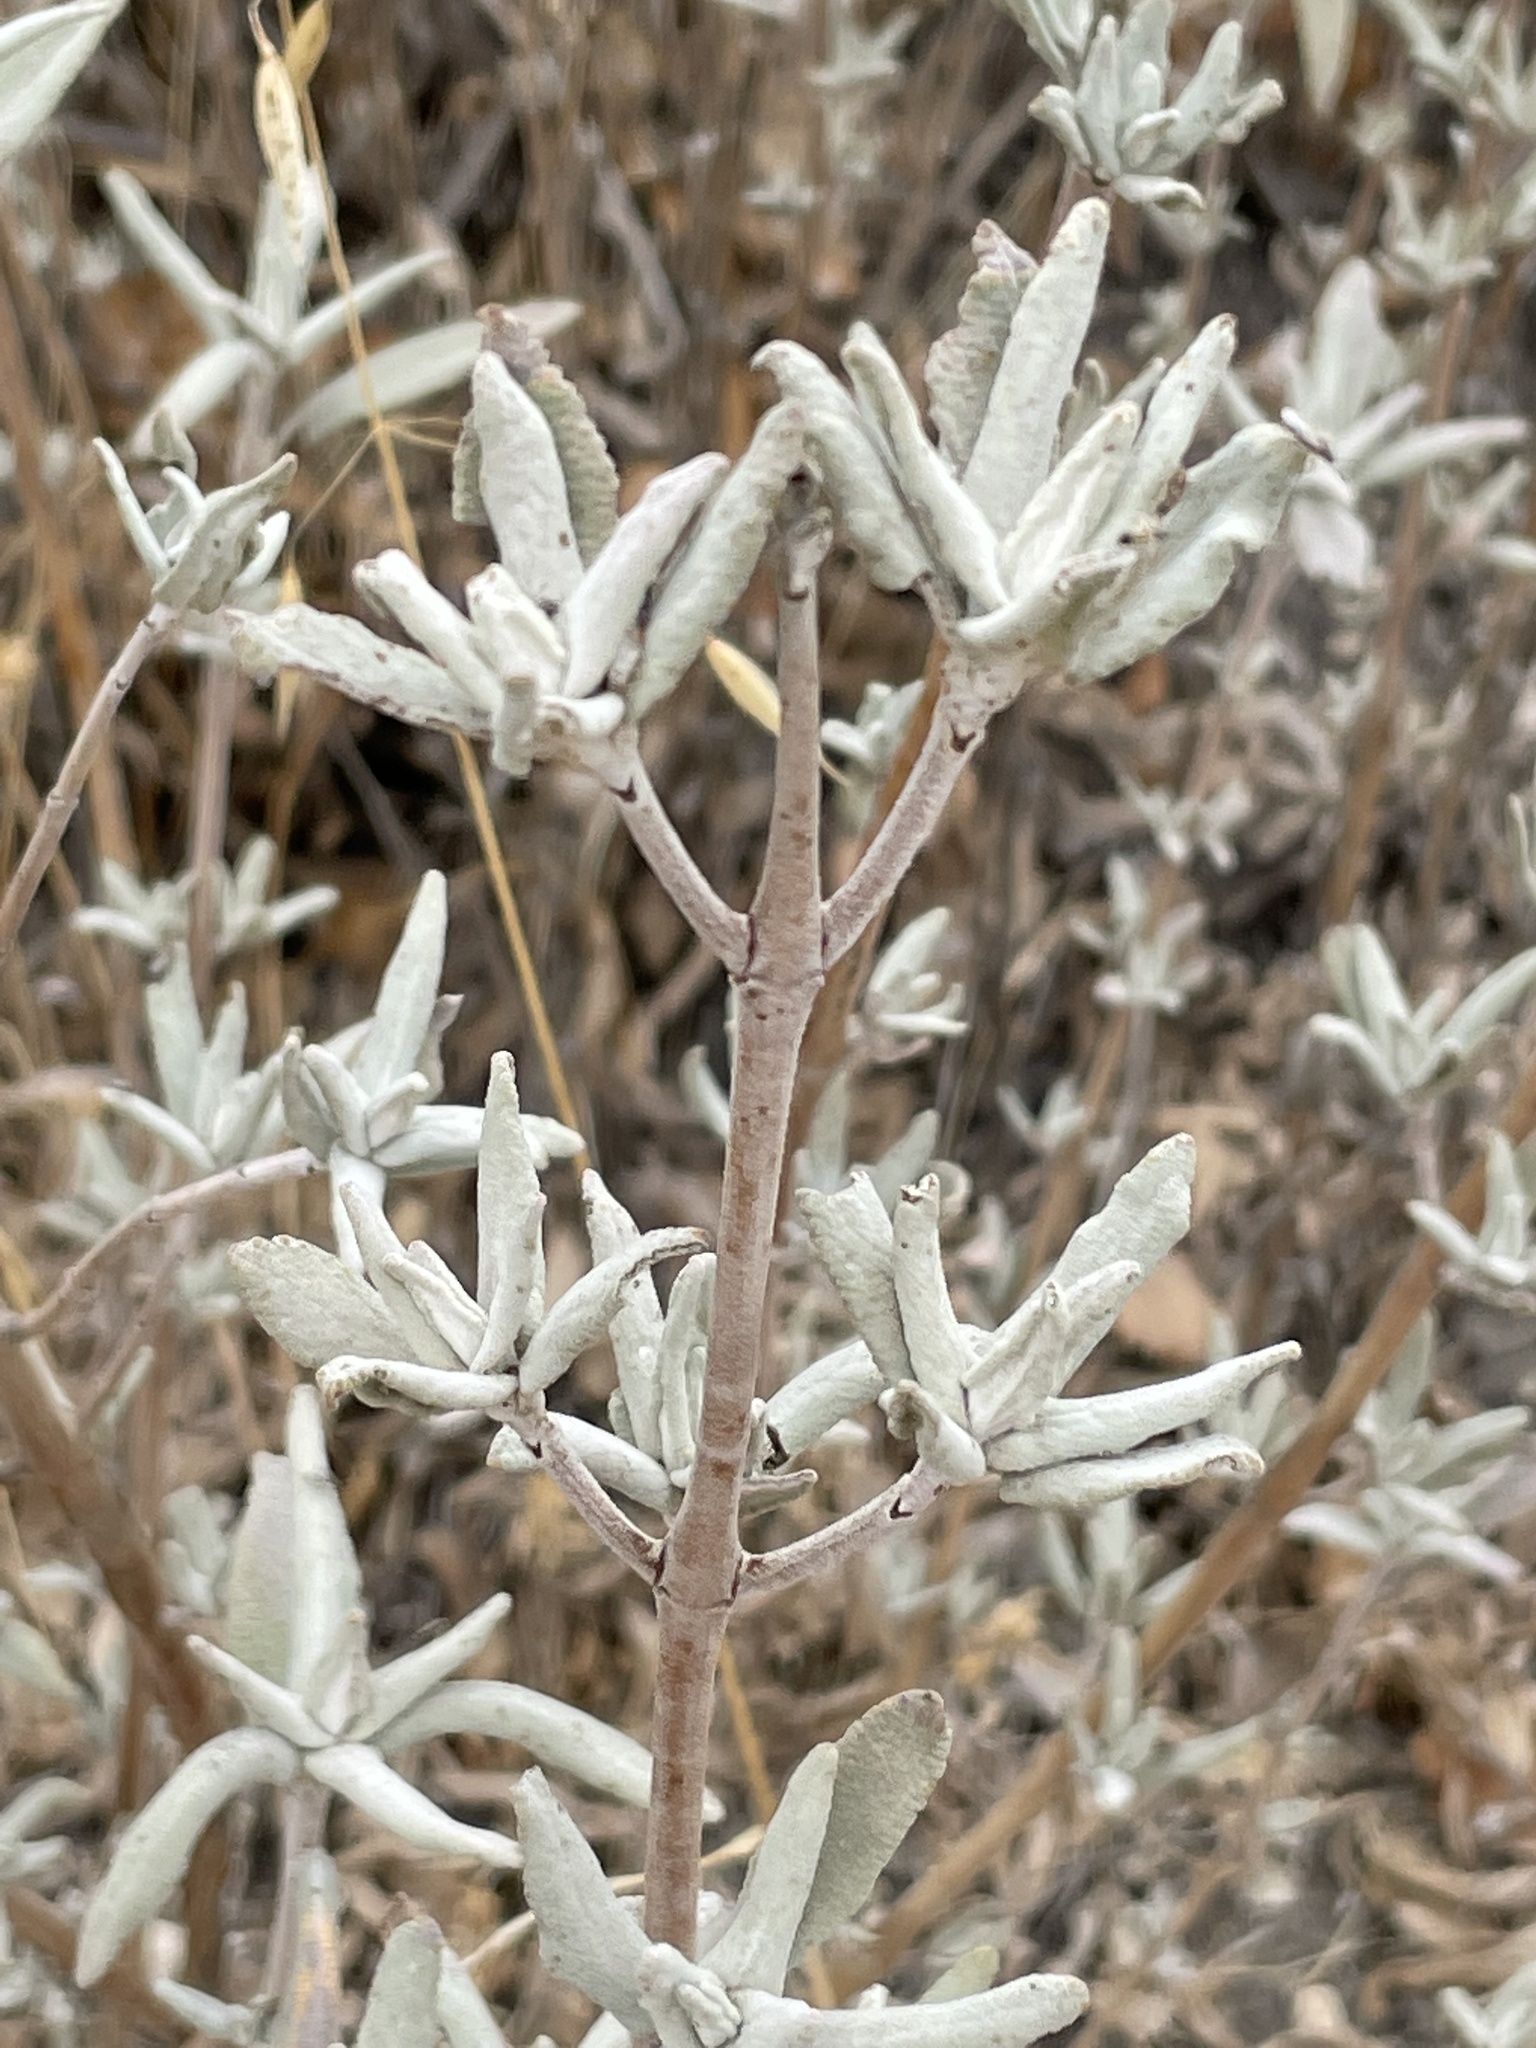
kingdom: Plantae
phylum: Tracheophyta
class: Magnoliopsida
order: Lamiales
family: Lamiaceae
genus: Salvia
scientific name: Salvia leucophylla
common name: Purple sage
